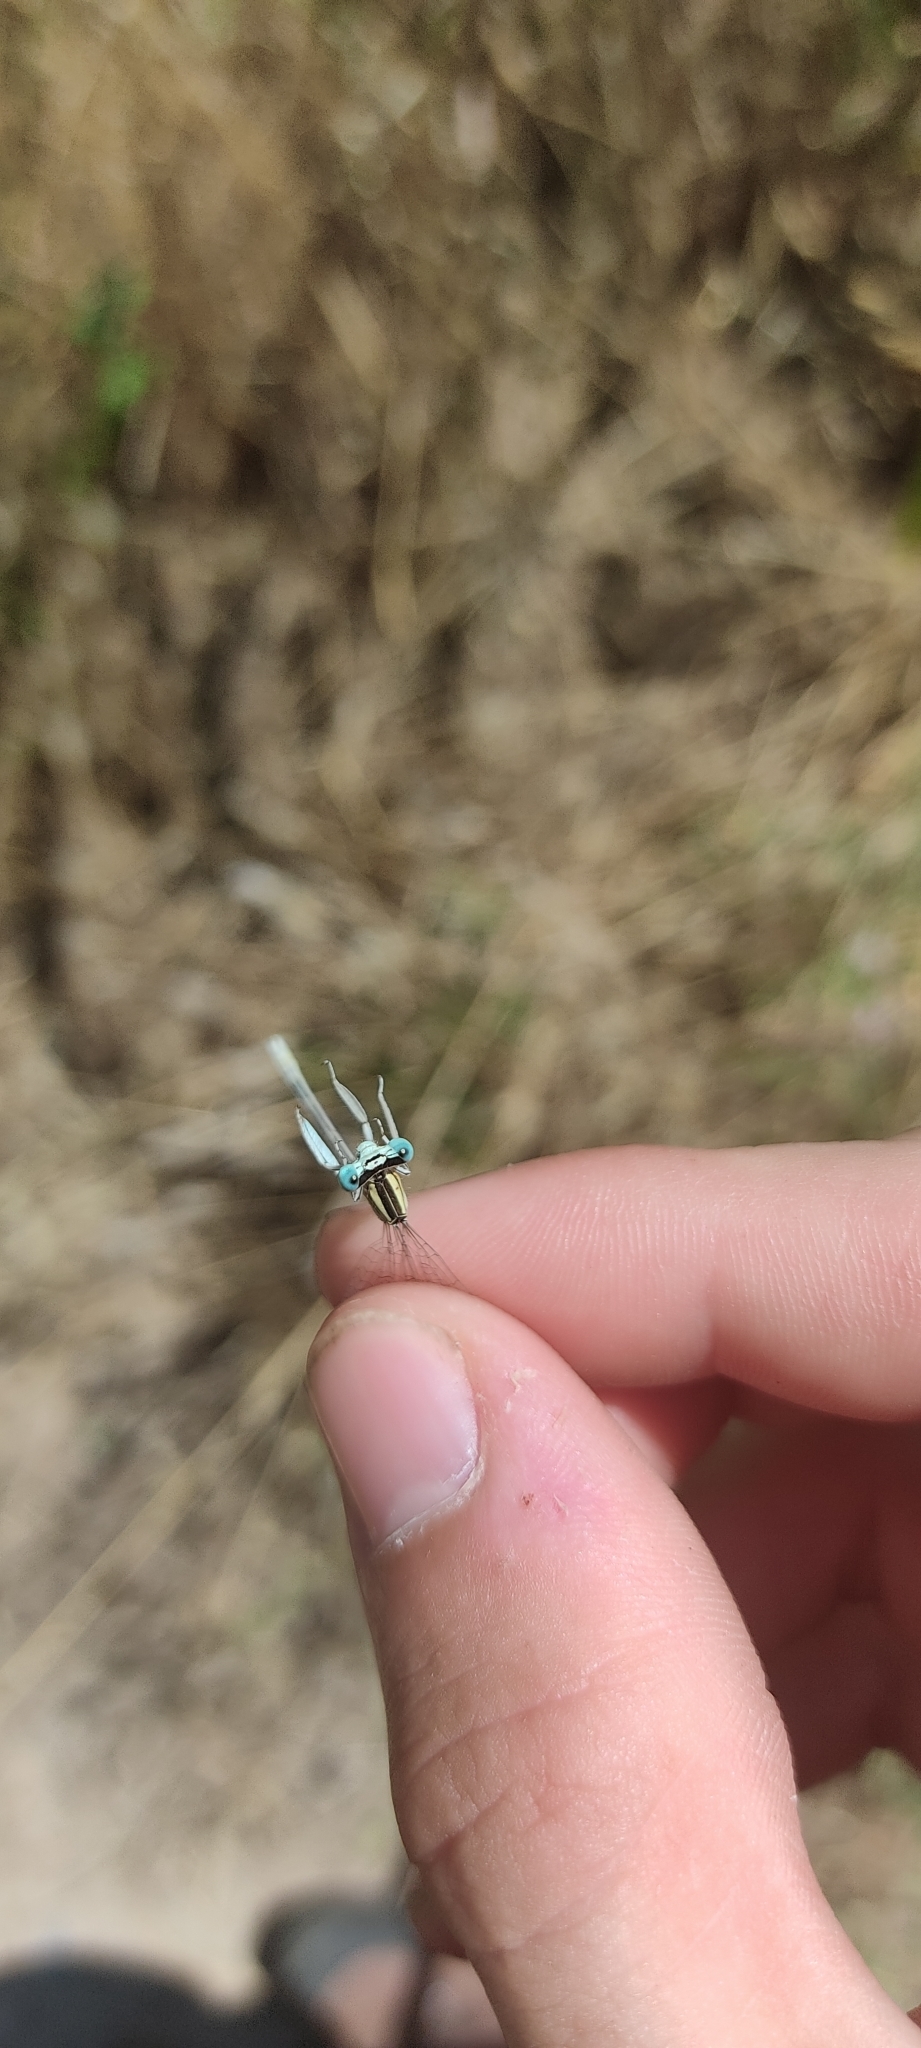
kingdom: Animalia
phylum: Arthropoda
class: Insecta
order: Odonata
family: Platycnemididae
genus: Platycnemis
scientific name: Platycnemis latipes
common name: White featherleg
